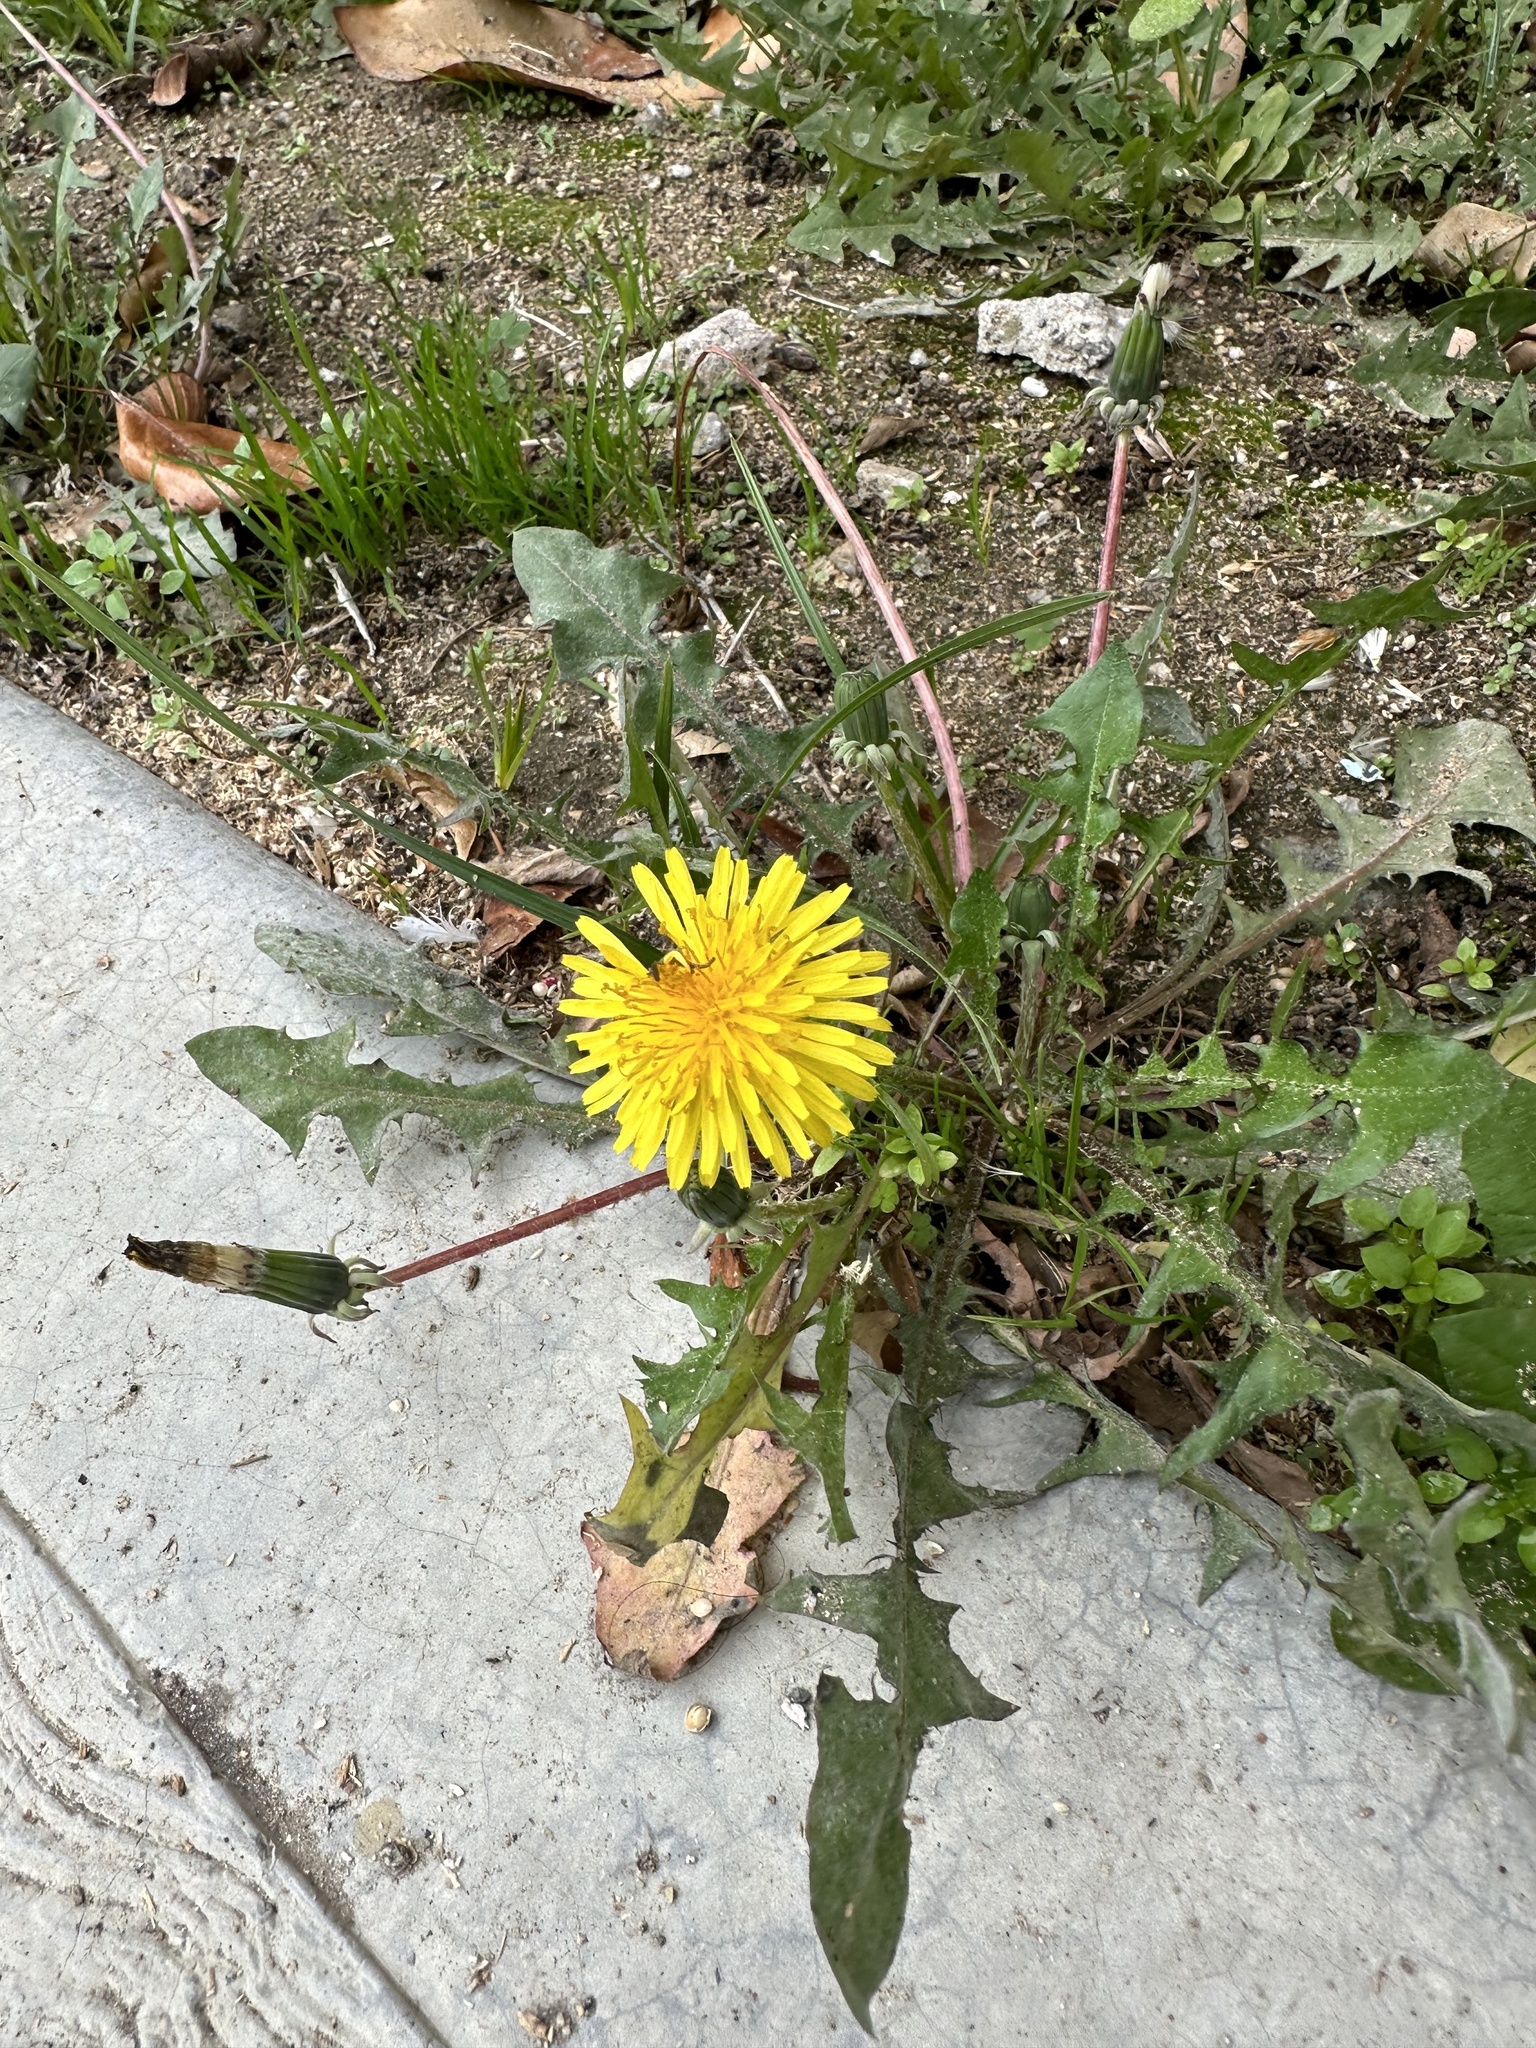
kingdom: Plantae
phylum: Tracheophyta
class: Magnoliopsida
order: Asterales
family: Asteraceae
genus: Taraxacum
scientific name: Taraxacum
